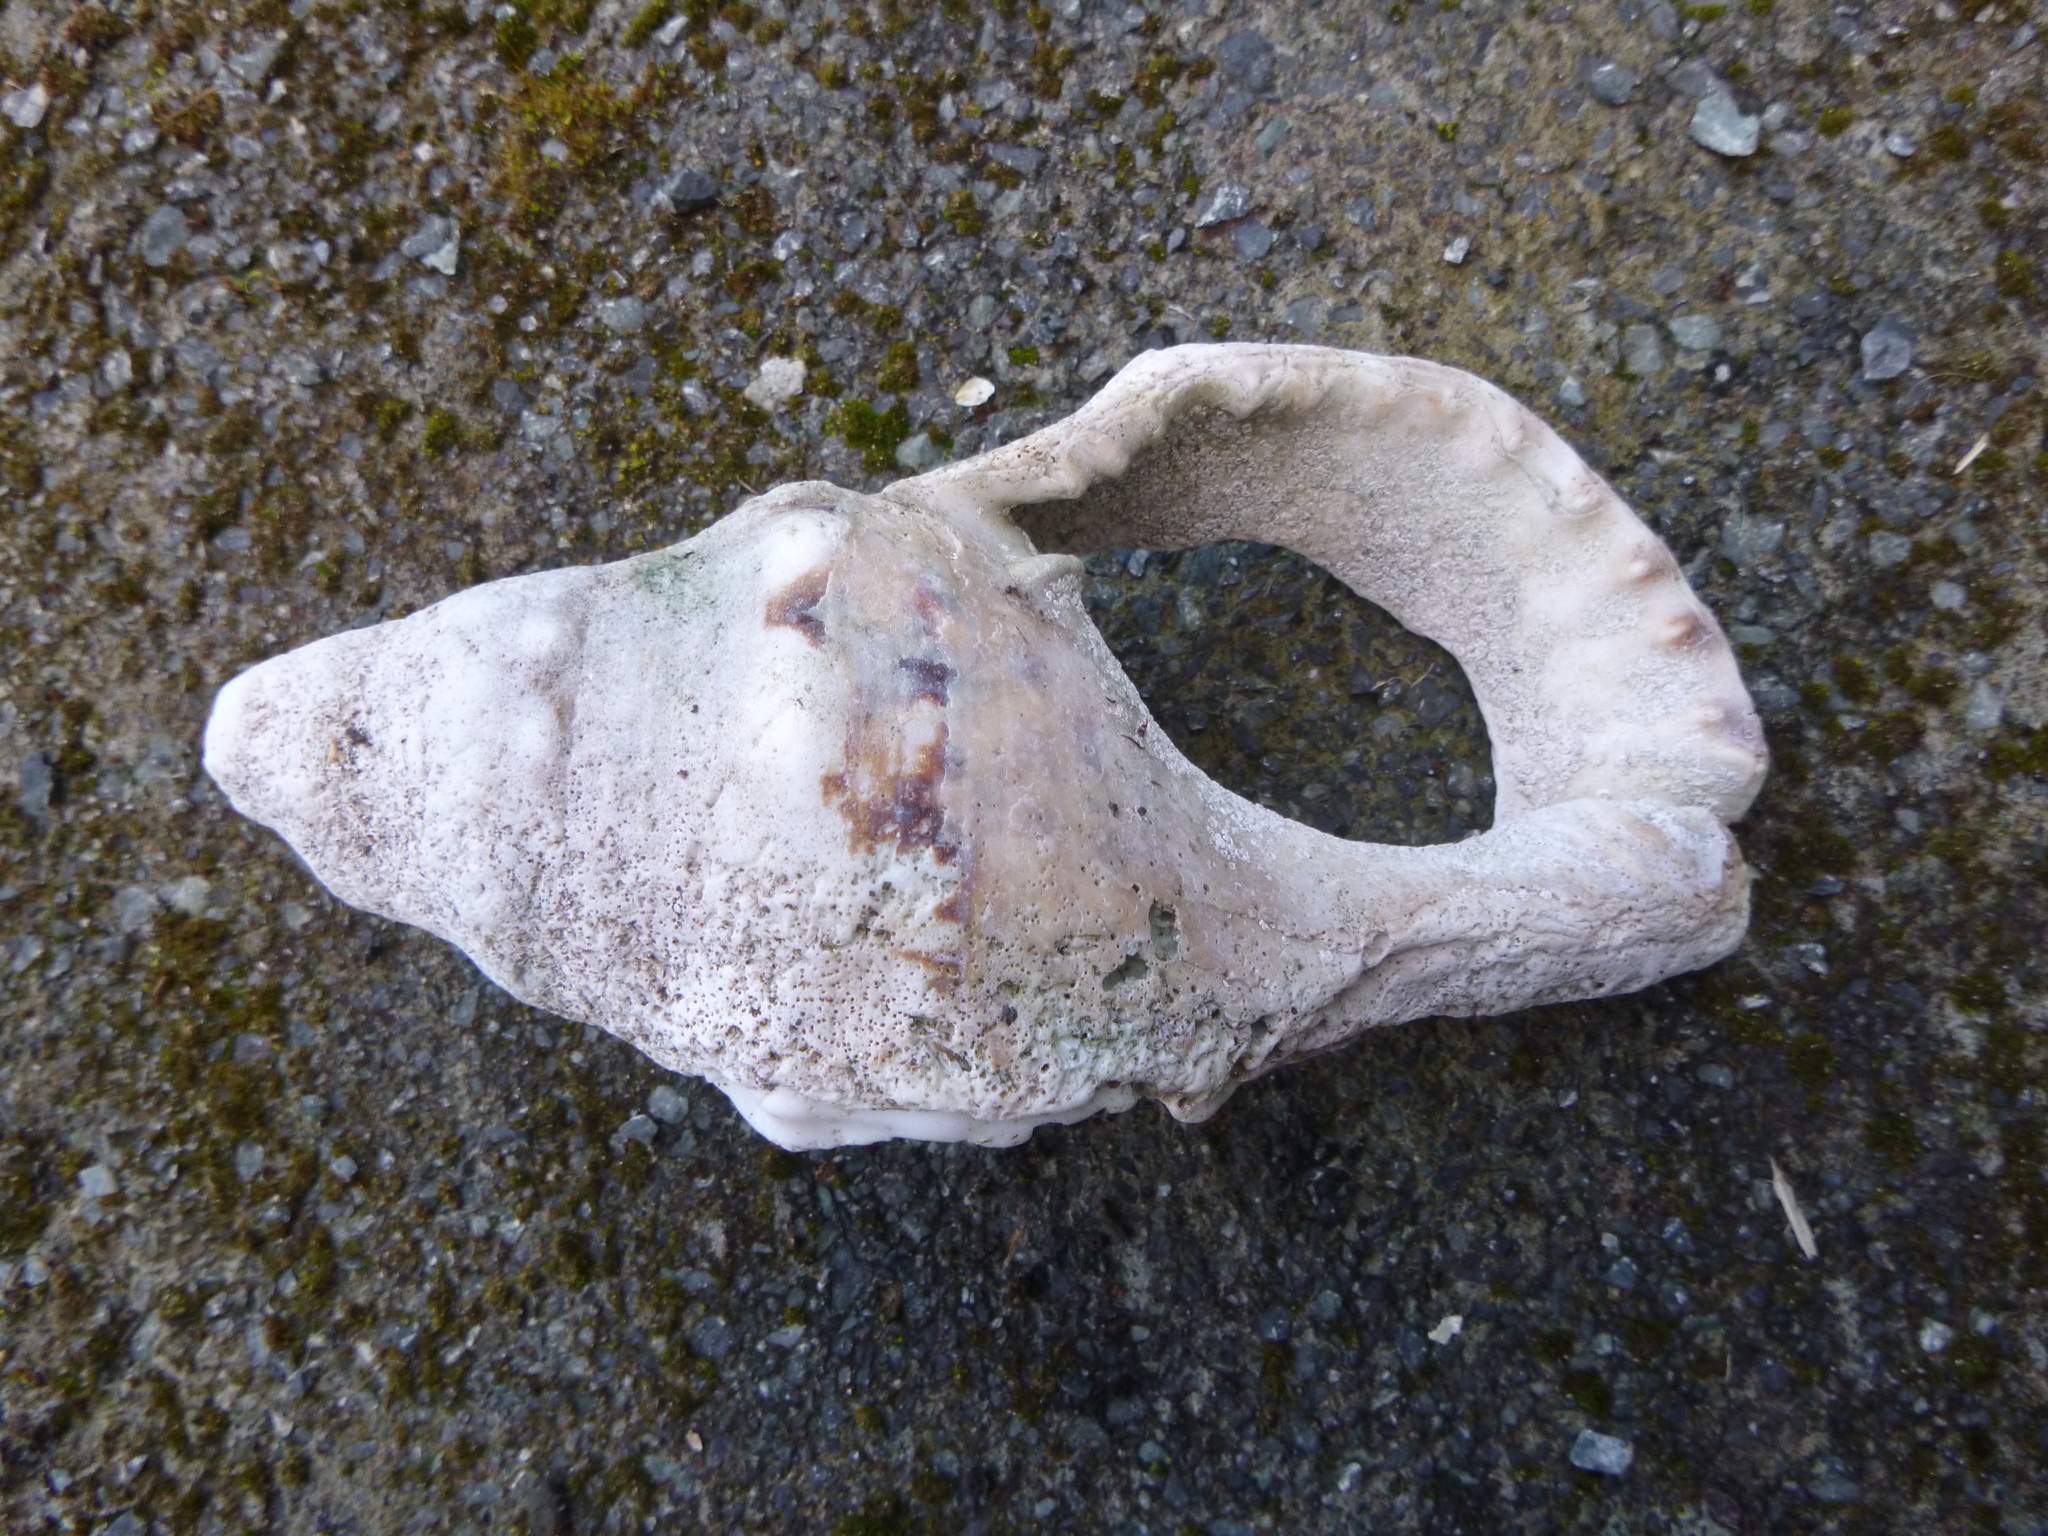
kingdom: Animalia
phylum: Mollusca
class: Gastropoda
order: Littorinimorpha
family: Charoniidae
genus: Charonia
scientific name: Charonia lampas
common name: Knobbed triton
